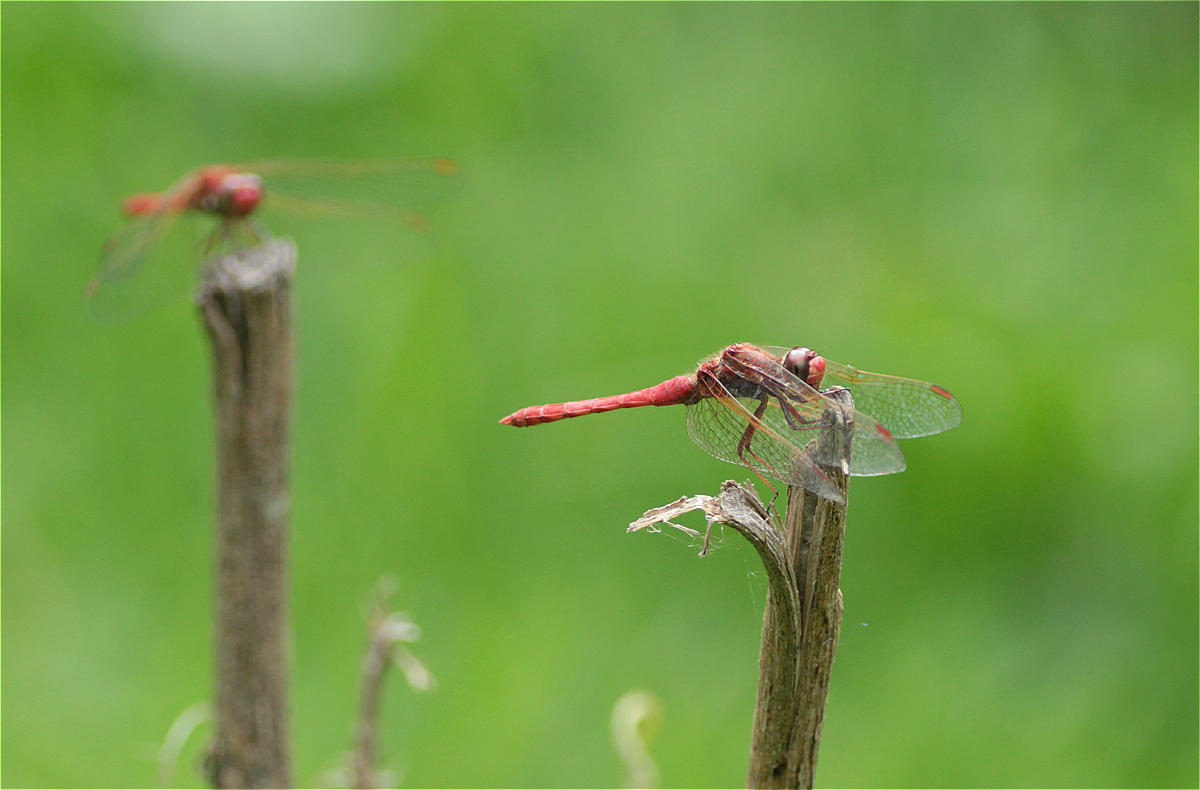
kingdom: Animalia
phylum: Arthropoda
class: Insecta
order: Odonata
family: Libellulidae
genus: Sympetrum
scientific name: Sympetrum gilvum
